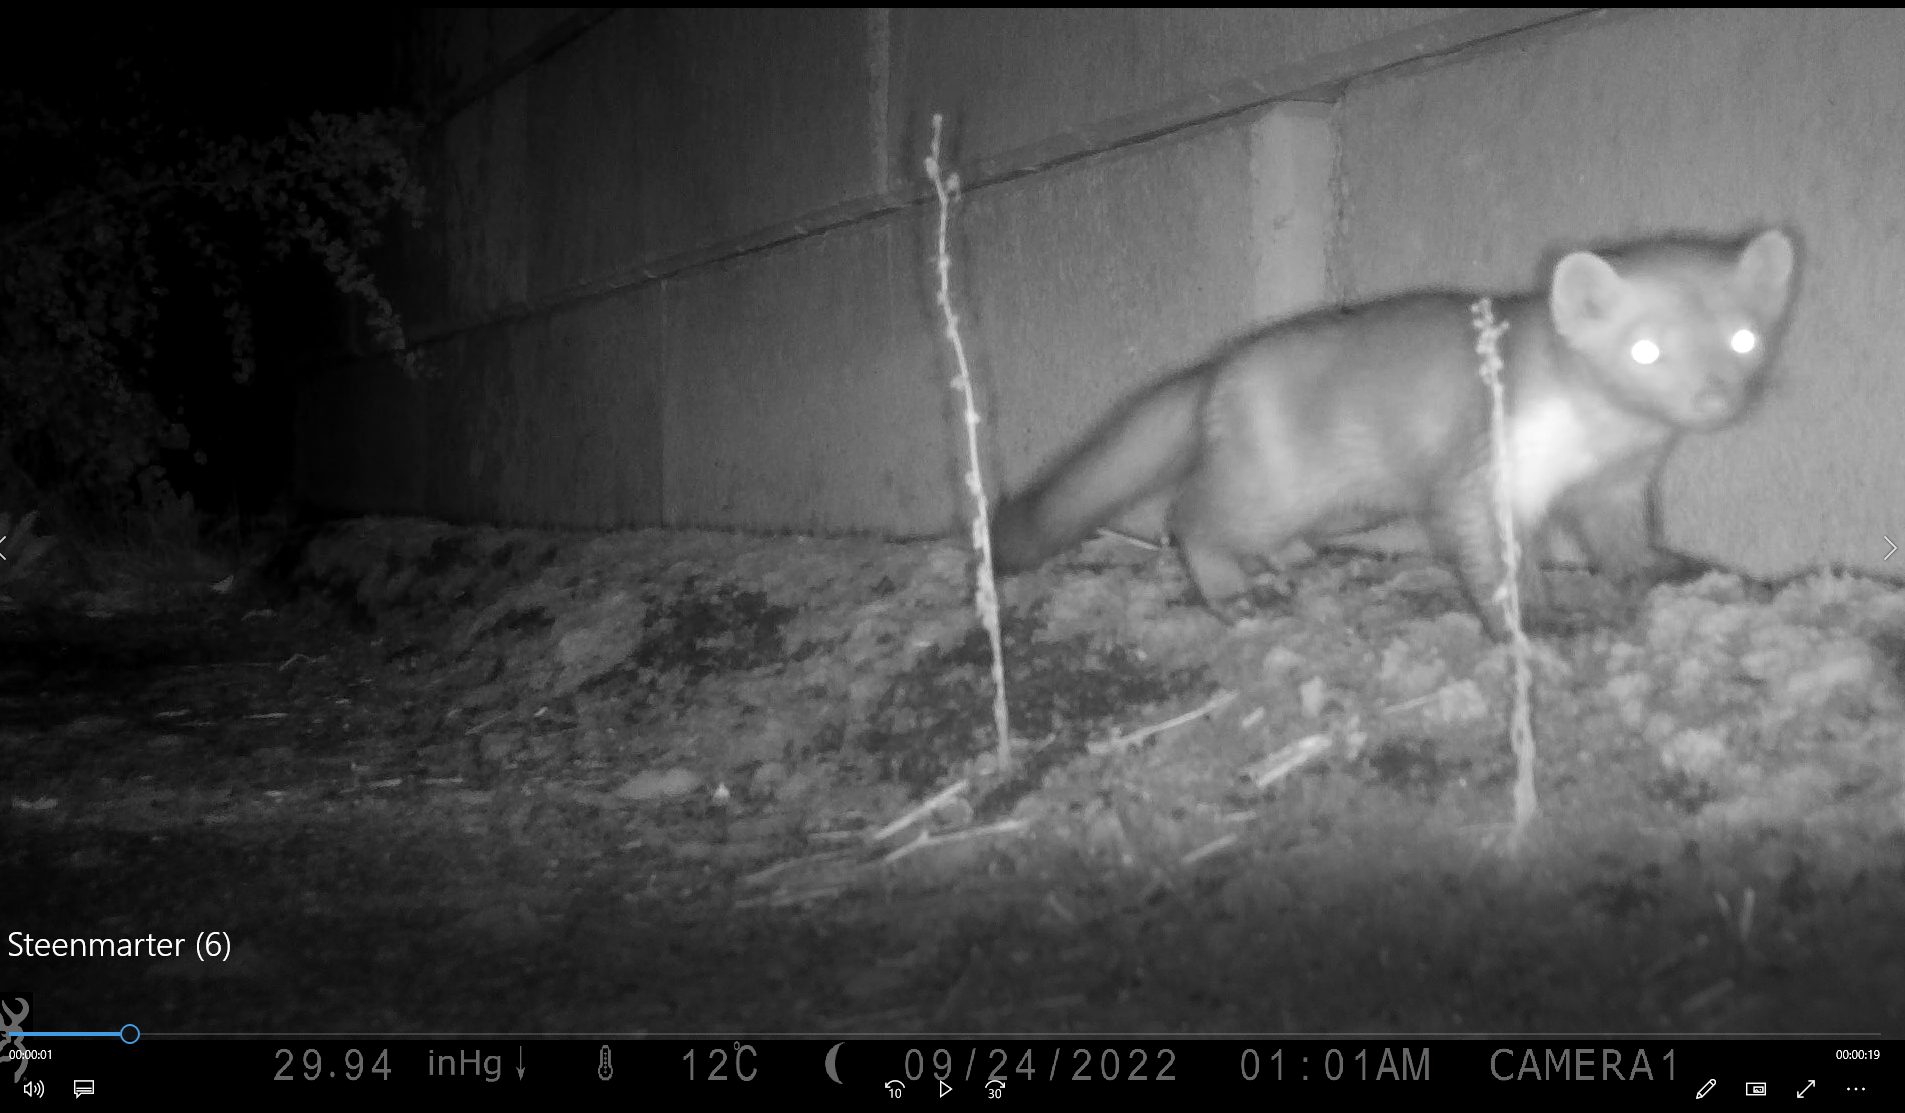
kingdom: Animalia
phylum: Chordata
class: Mammalia
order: Carnivora
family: Mustelidae
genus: Martes
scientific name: Martes foina
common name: Beech marten
